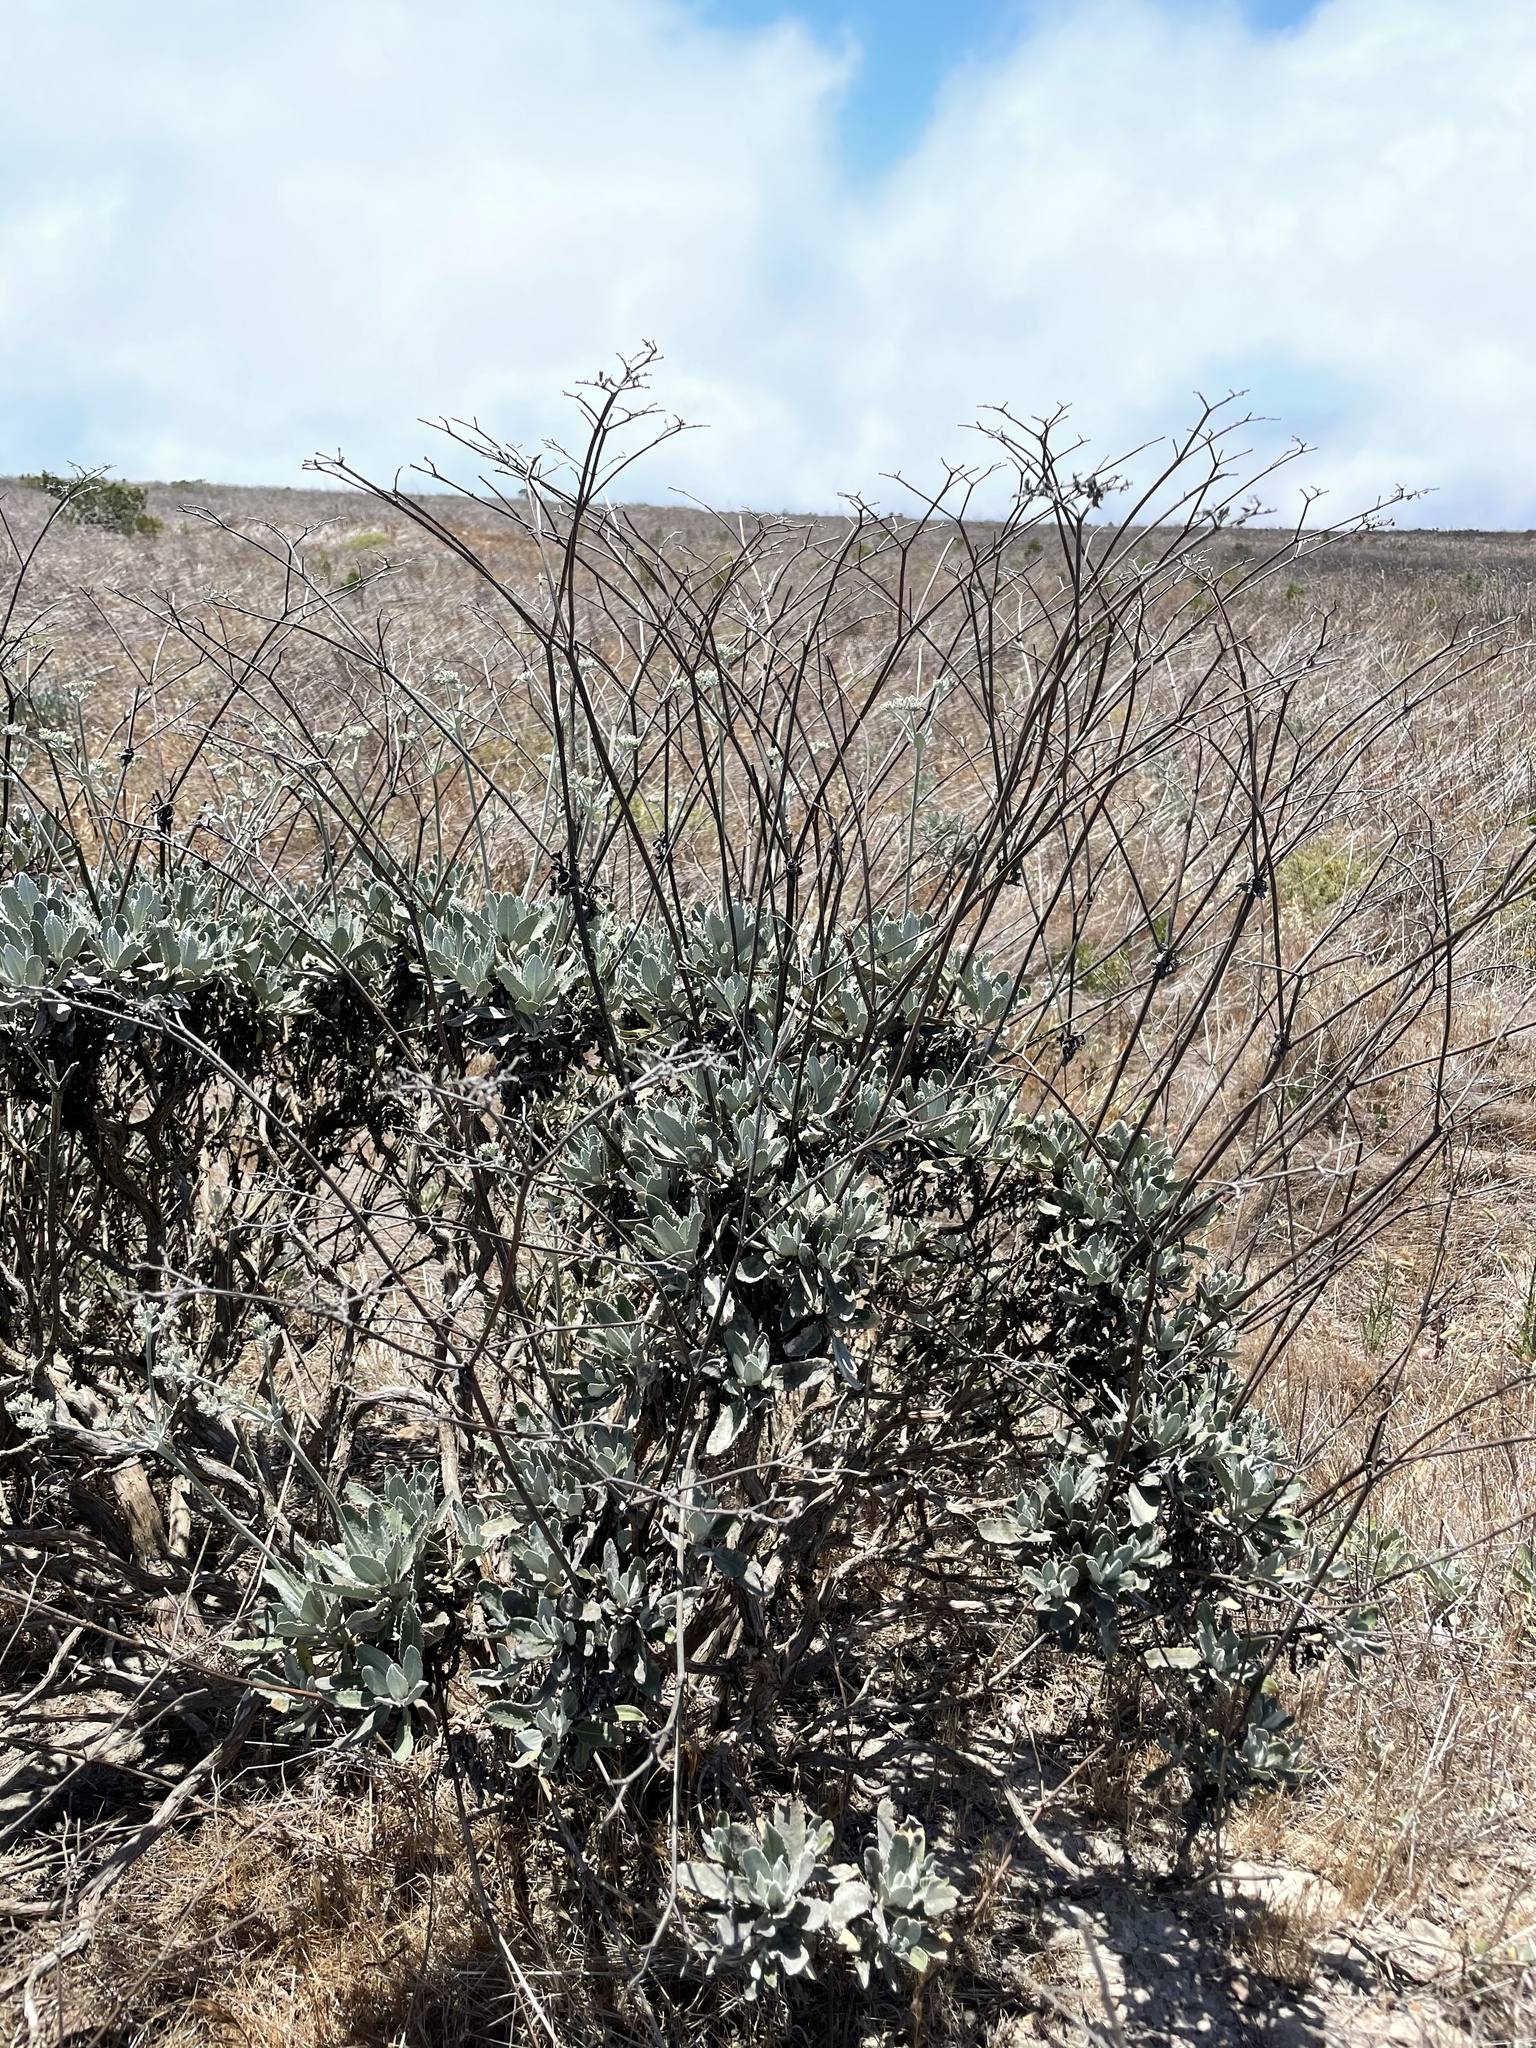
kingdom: Plantae
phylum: Tracheophyta
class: Magnoliopsida
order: Caryophyllales
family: Polygonaceae
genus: Eriogonum
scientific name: Eriogonum giganteum
